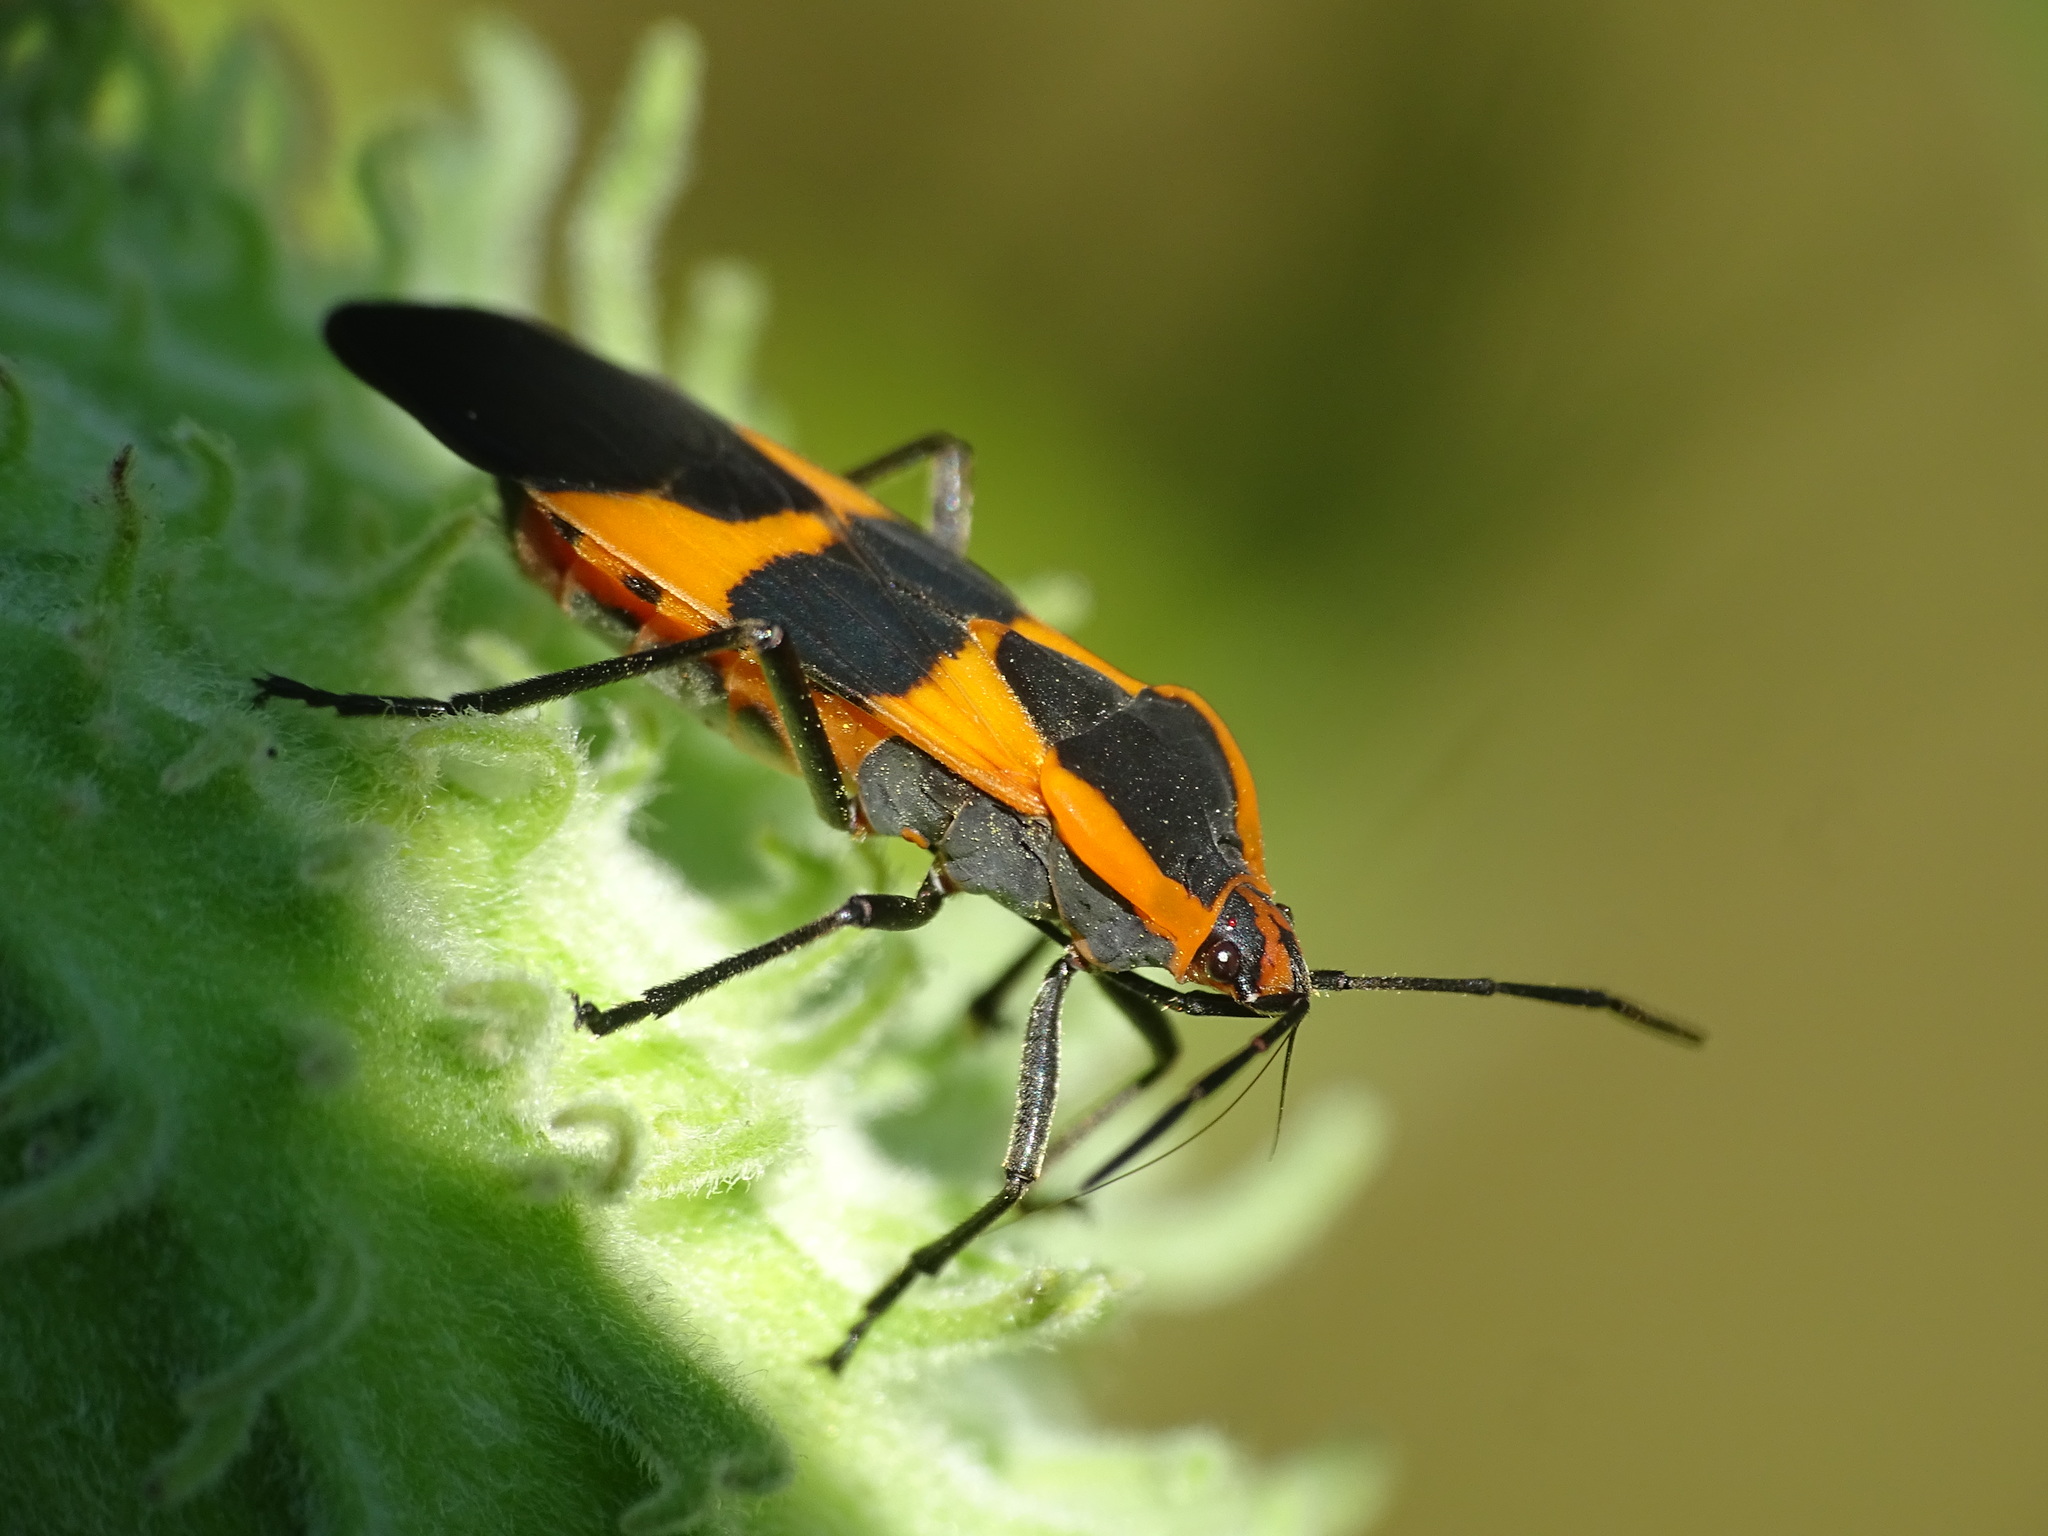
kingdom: Animalia
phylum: Arthropoda
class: Insecta
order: Hemiptera
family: Lygaeidae
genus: Oncopeltus
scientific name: Oncopeltus fasciatus
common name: Large milkweed bug
